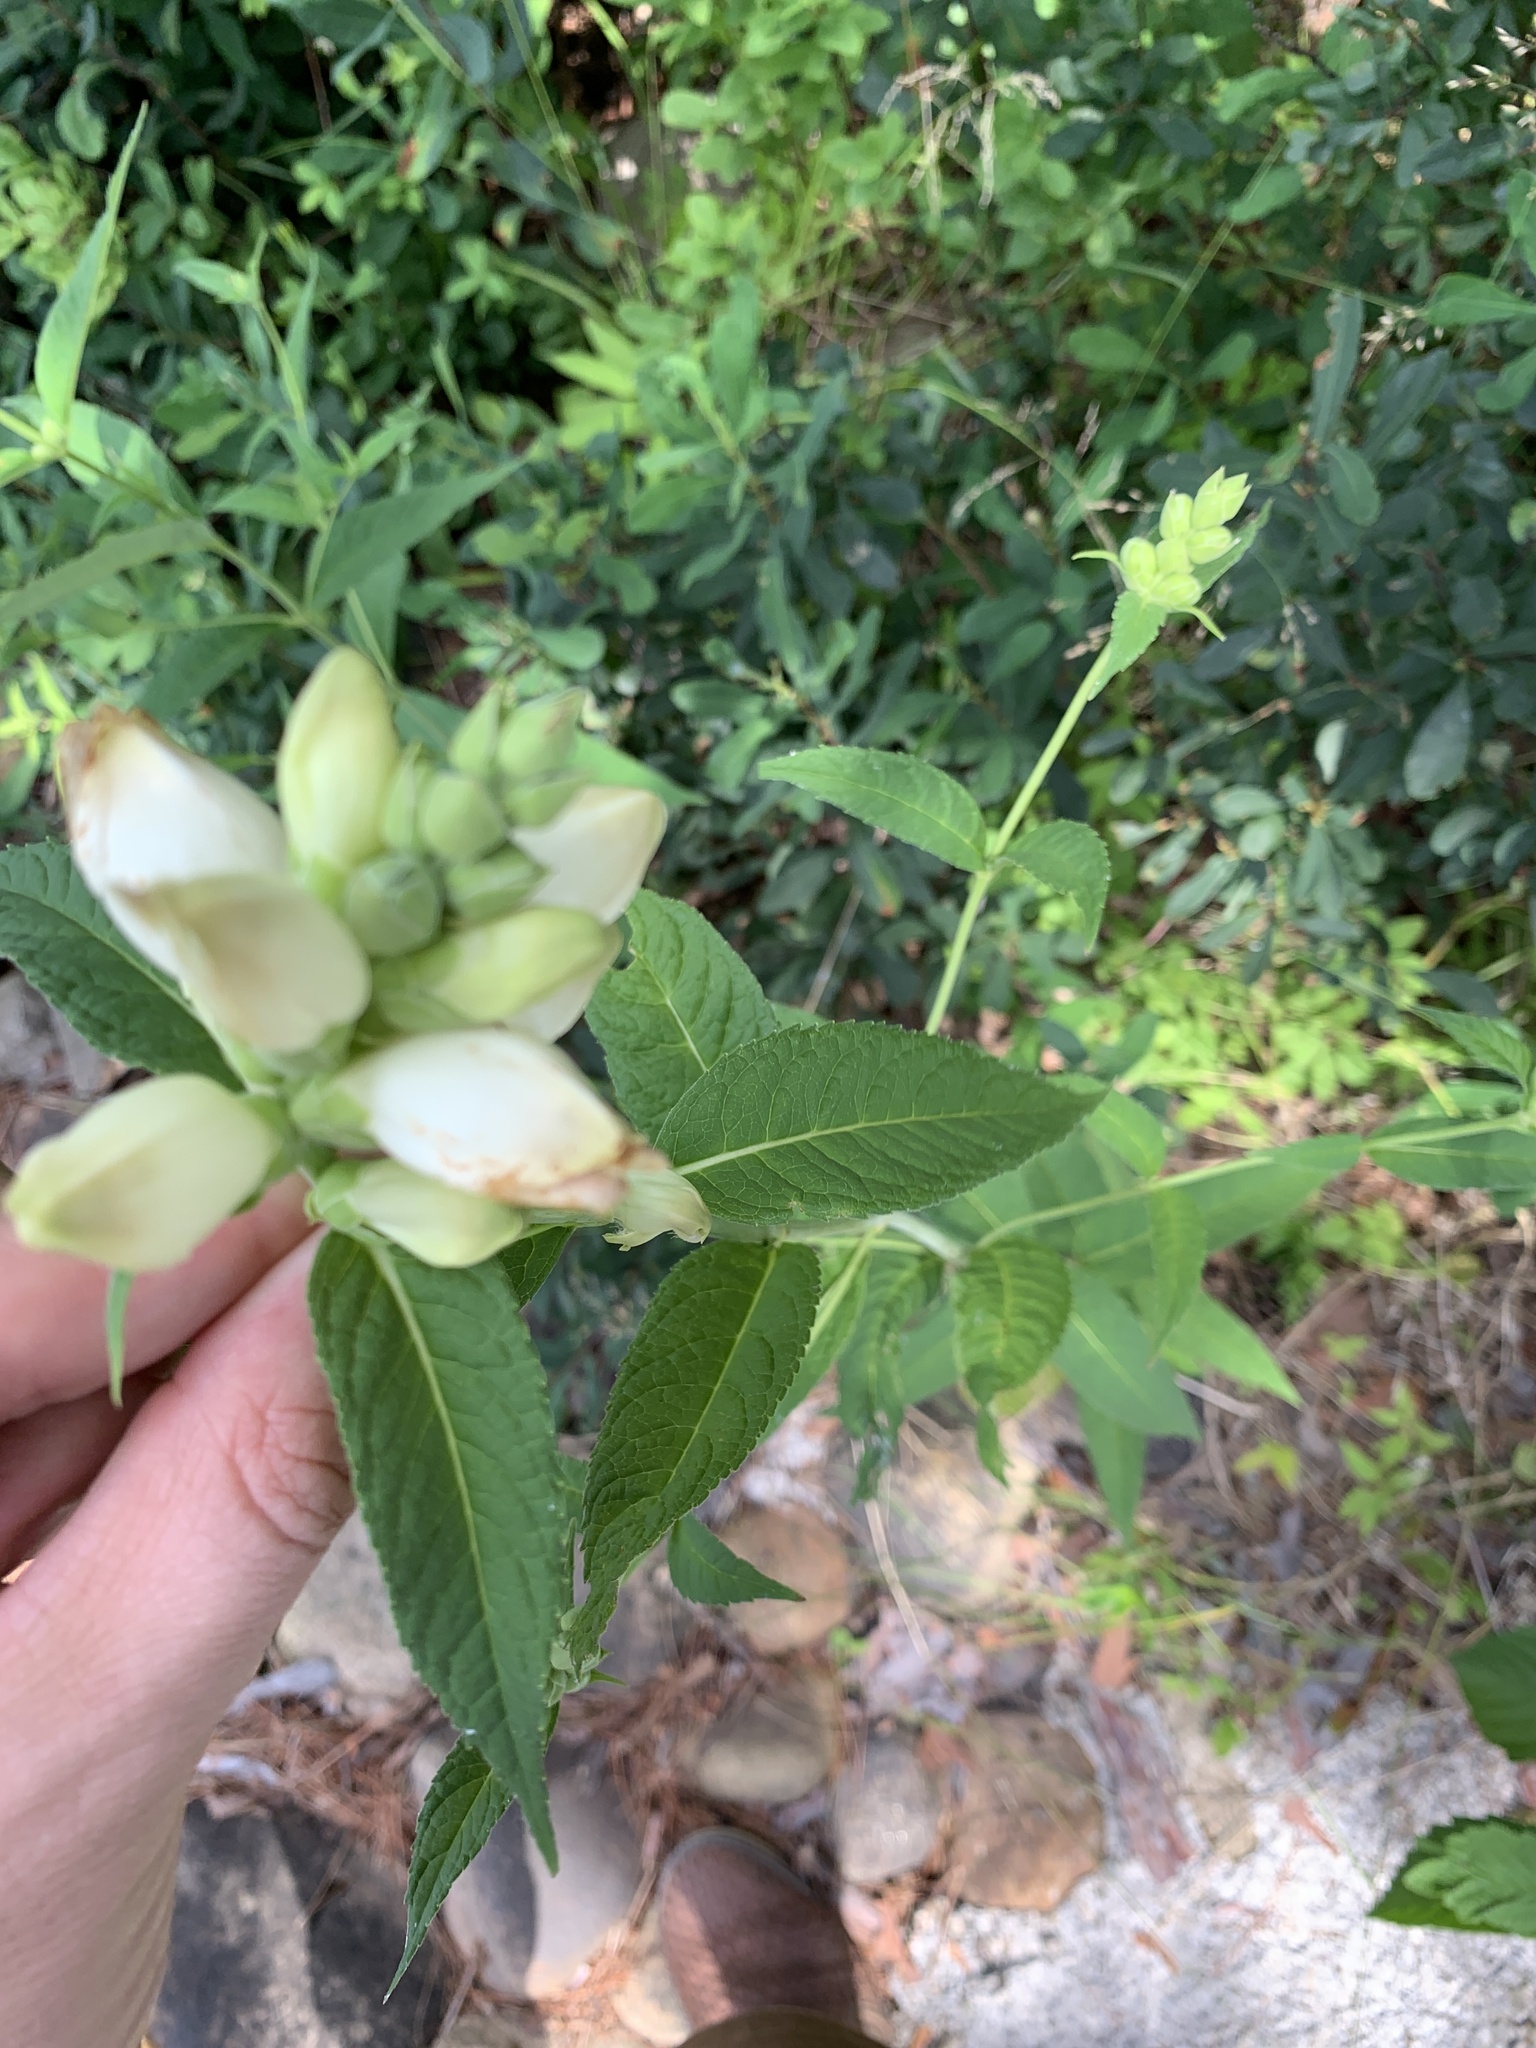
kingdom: Plantae
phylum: Tracheophyta
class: Magnoliopsida
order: Lamiales
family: Plantaginaceae
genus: Chelone
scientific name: Chelone glabra
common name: Snakehead
